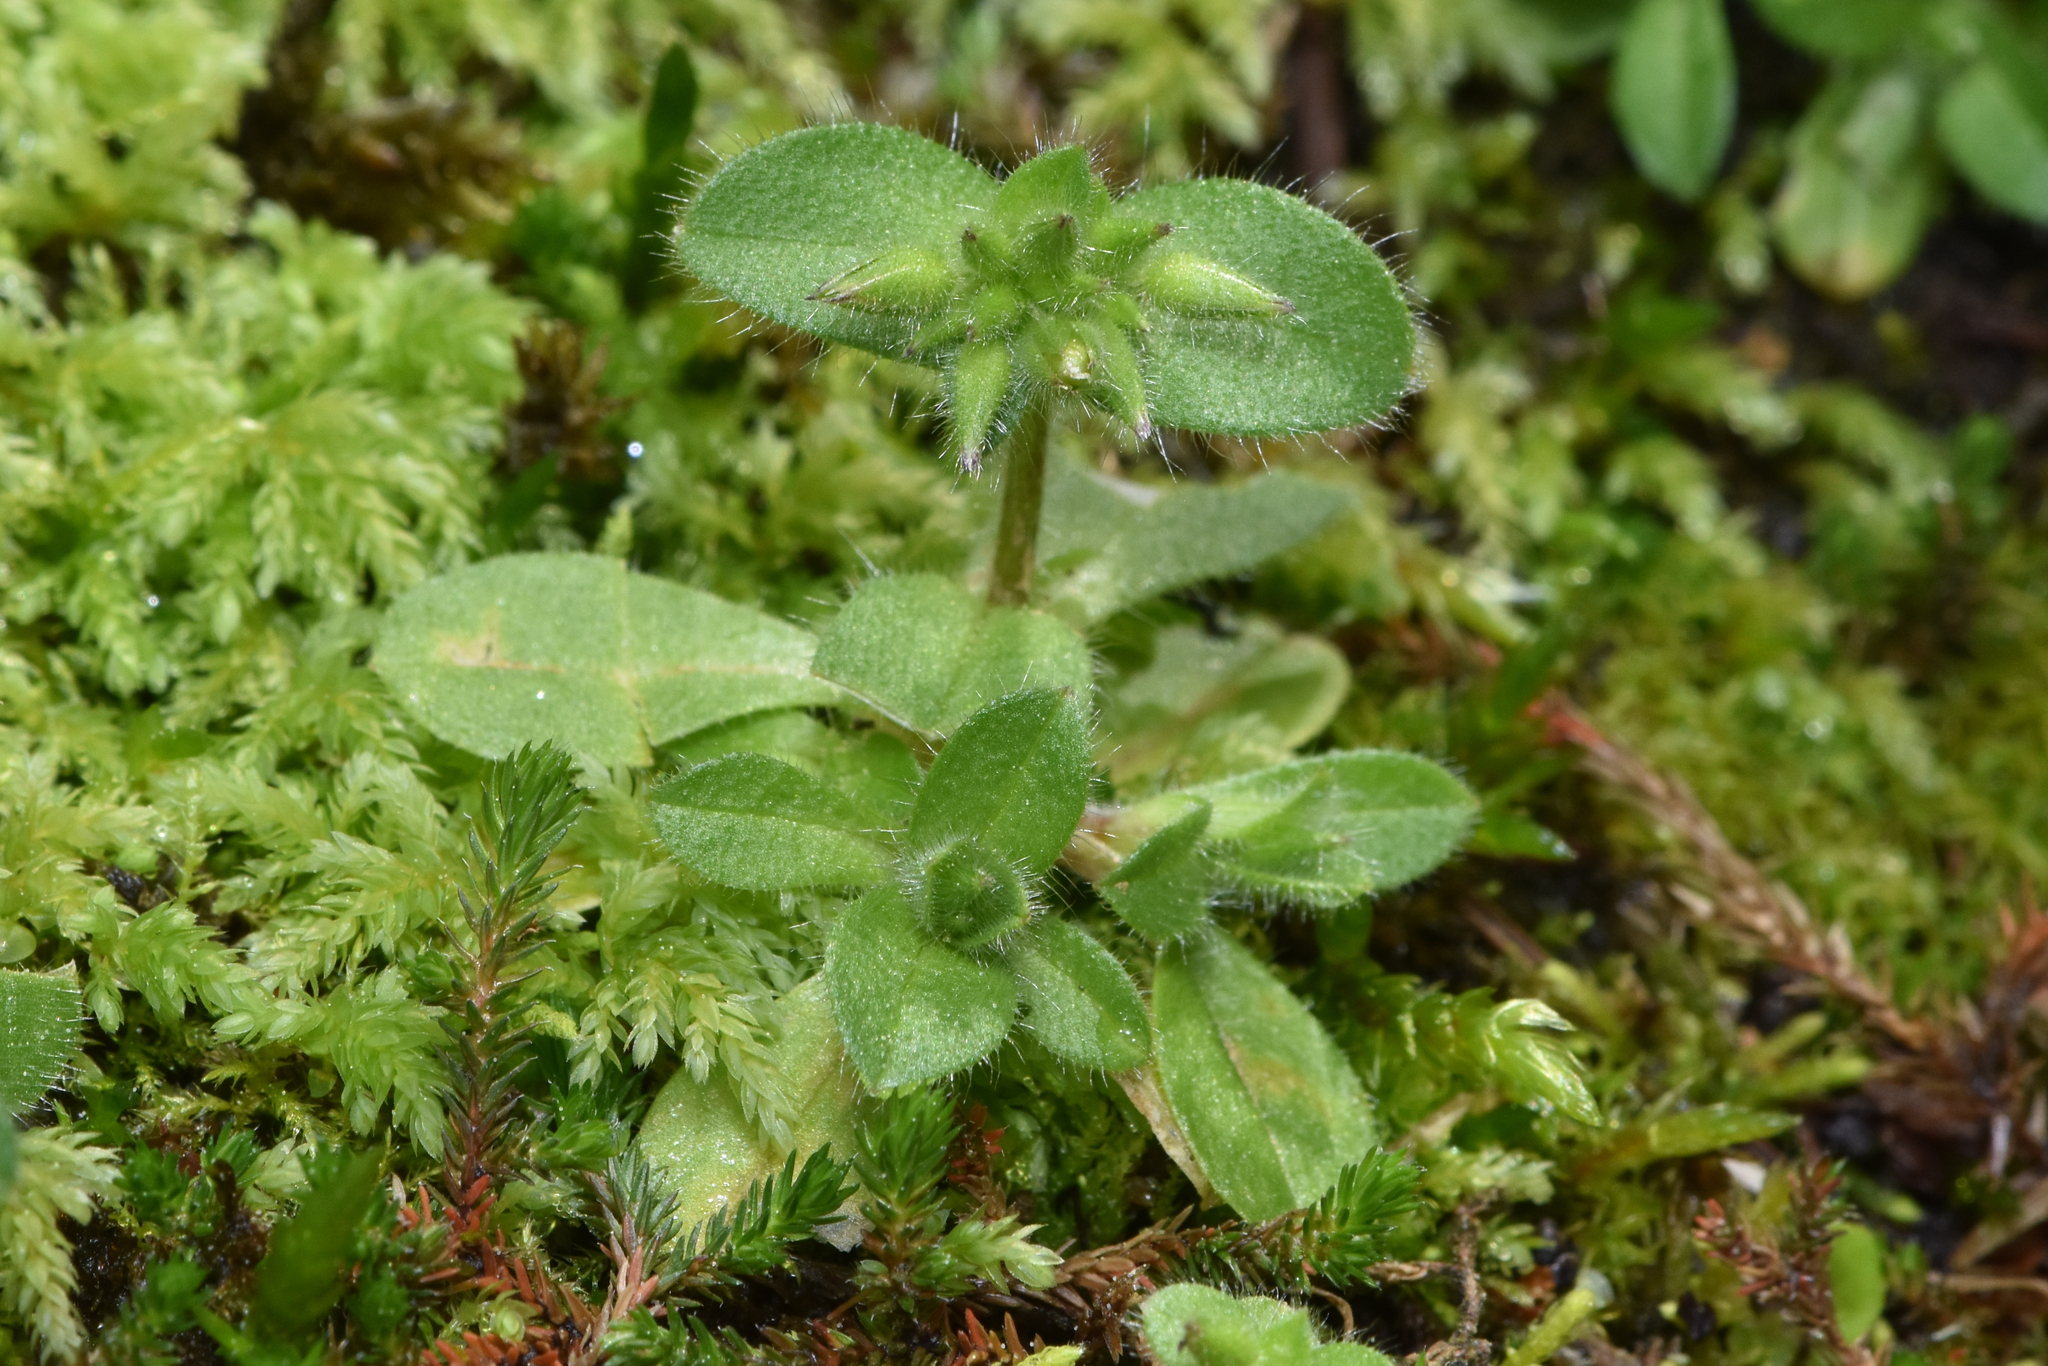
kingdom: Plantae
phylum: Tracheophyta
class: Magnoliopsida
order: Caryophyllales
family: Caryophyllaceae
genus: Cerastium
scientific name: Cerastium fontanum
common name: Common mouse-ear
